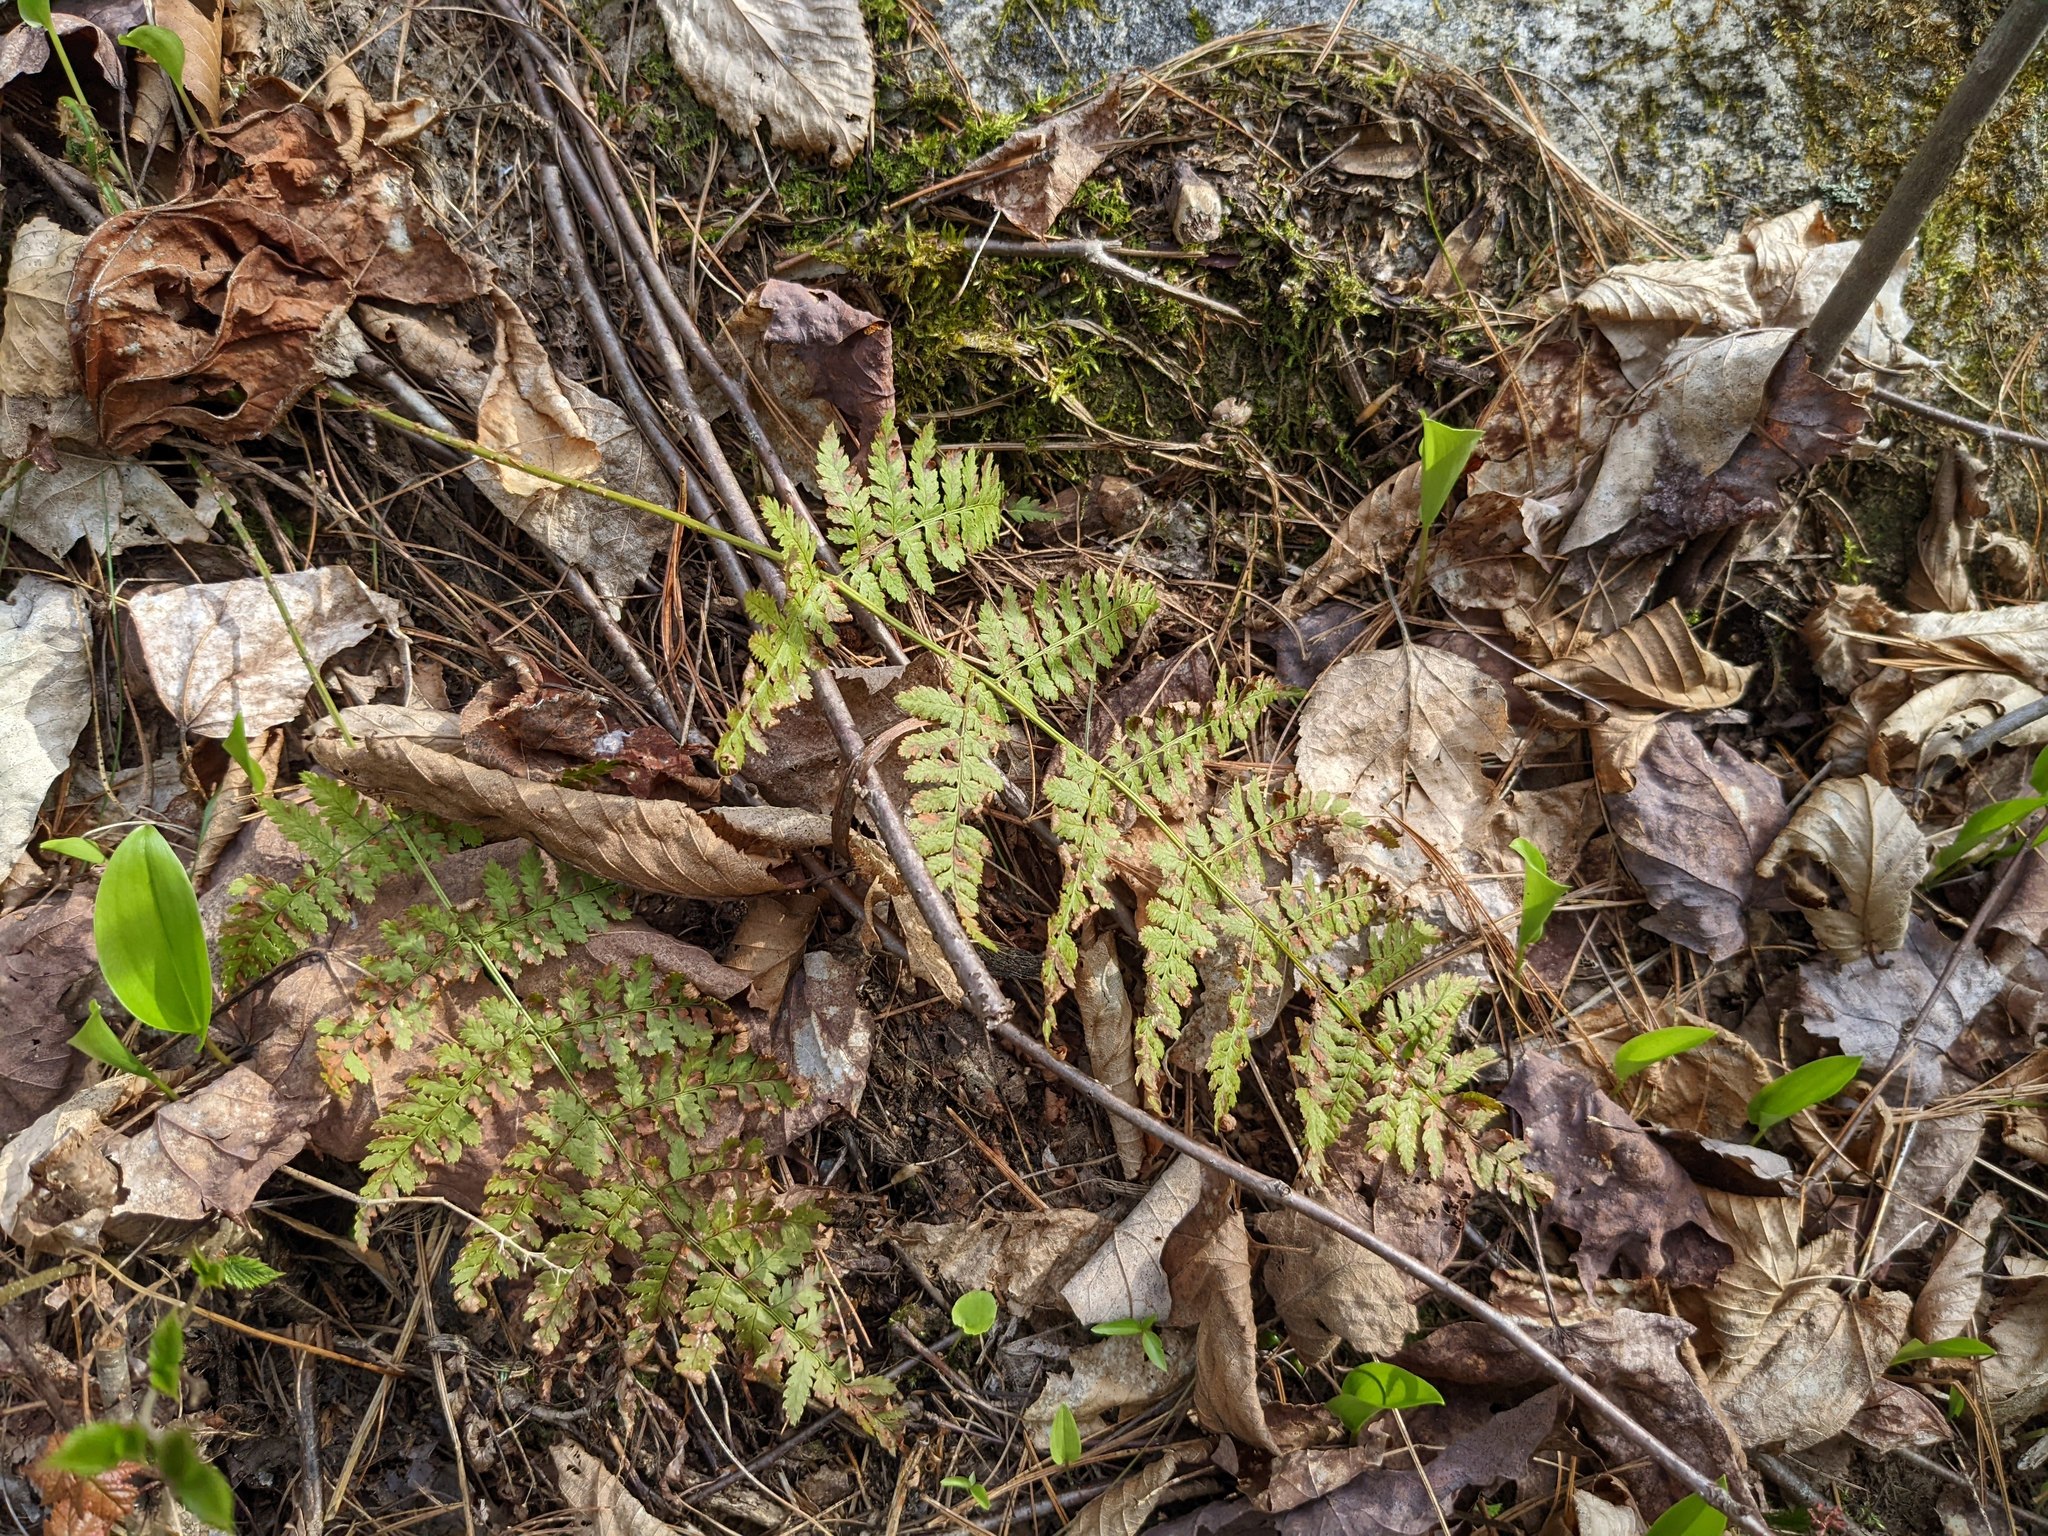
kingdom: Plantae
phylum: Tracheophyta
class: Polypodiopsida
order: Polypodiales
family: Dryopteridaceae
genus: Dryopteris
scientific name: Dryopteris intermedia
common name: Evergreen wood fern
